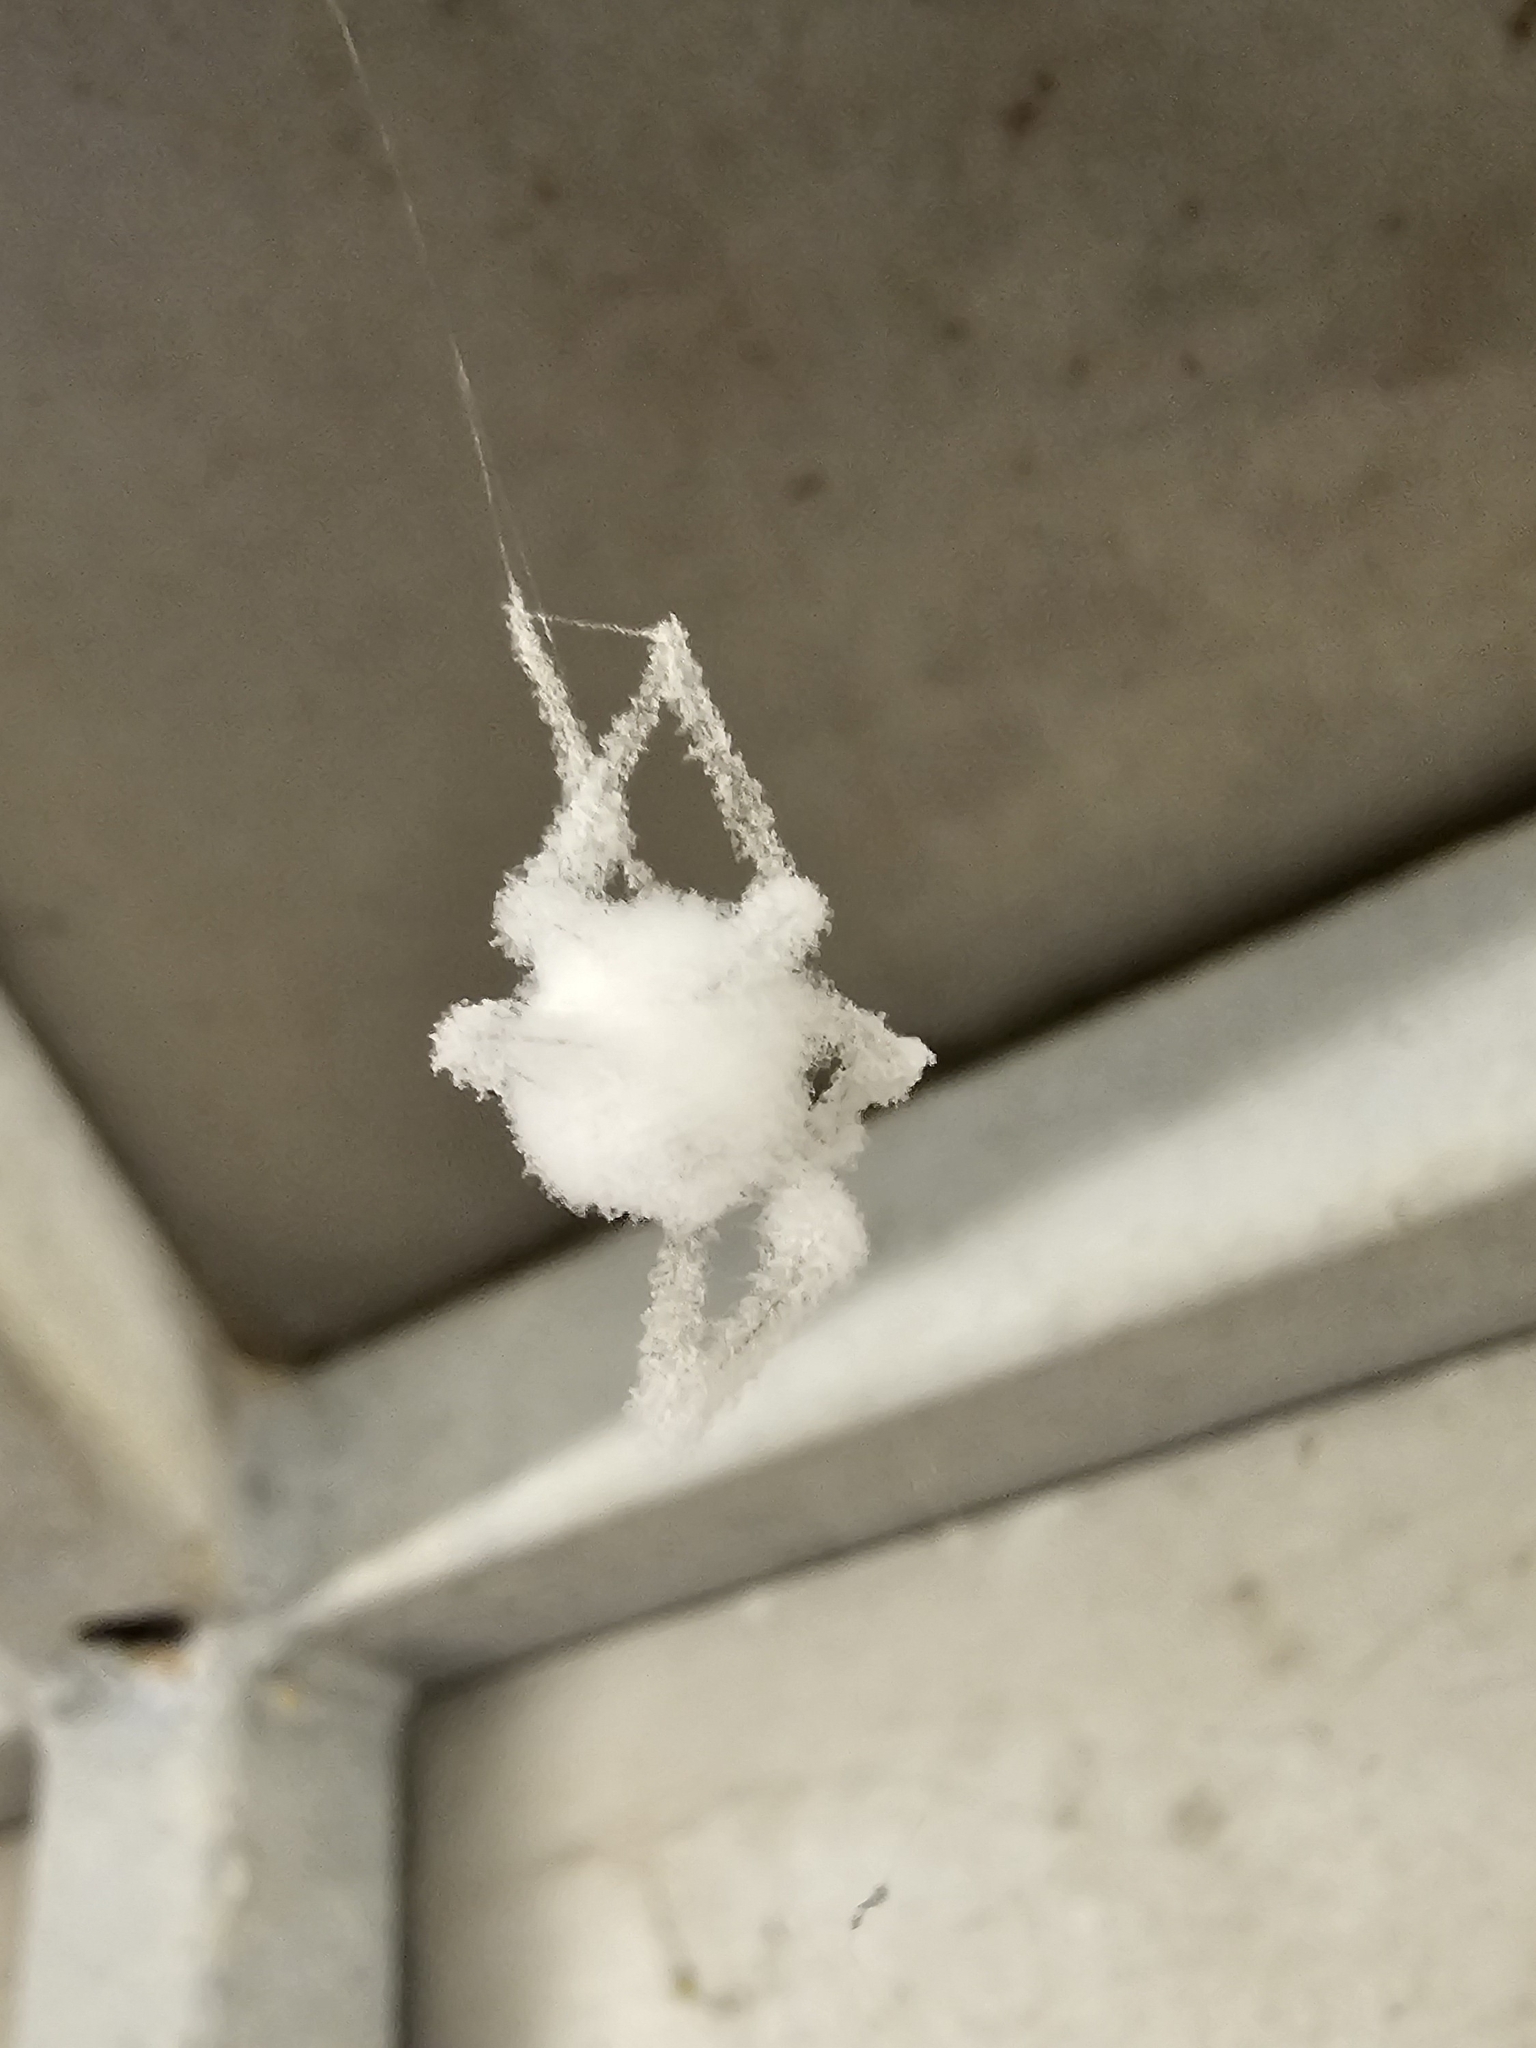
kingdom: Fungi
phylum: Ascomycota
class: Sordariomycetes
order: Hypocreales
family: Cordycipitaceae
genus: Lecanicillium
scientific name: Lecanicillium tenuipes
